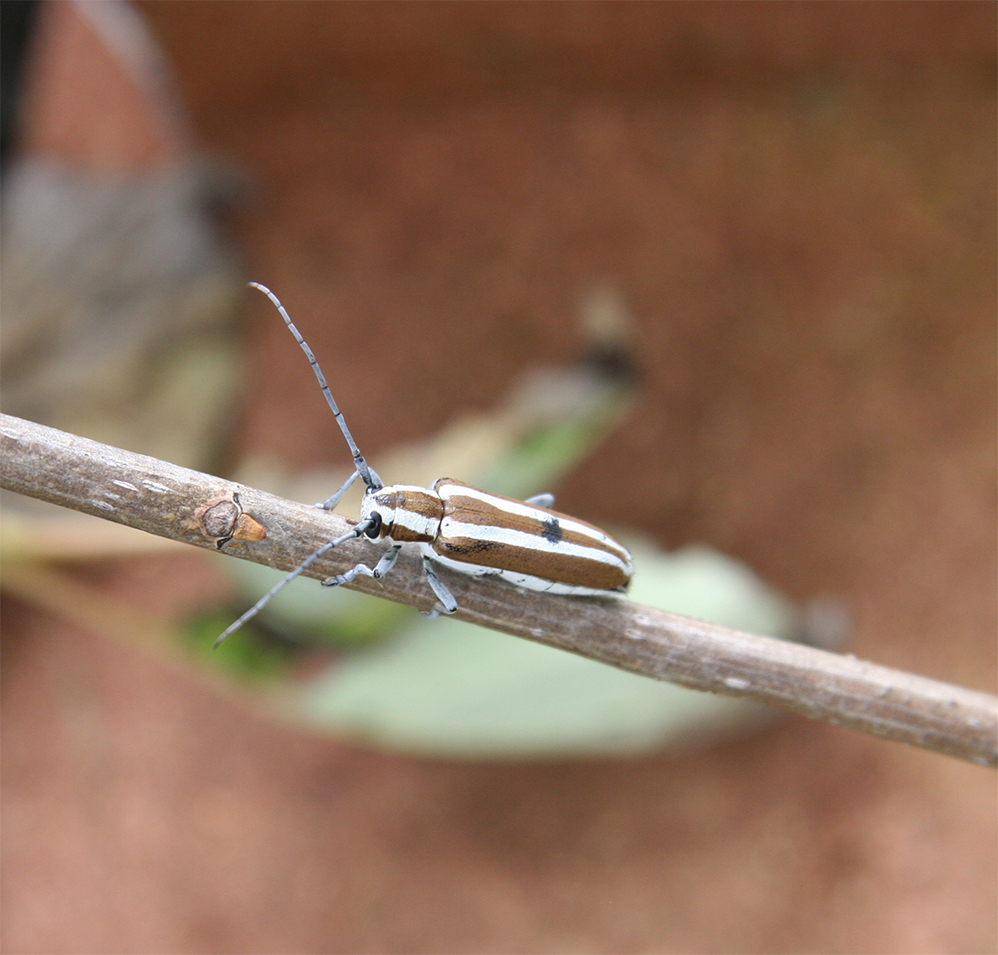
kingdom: Animalia
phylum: Arthropoda
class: Insecta
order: Coleoptera
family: Cerambycidae
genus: Saperda
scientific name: Saperda candida
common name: Round-headed borer
